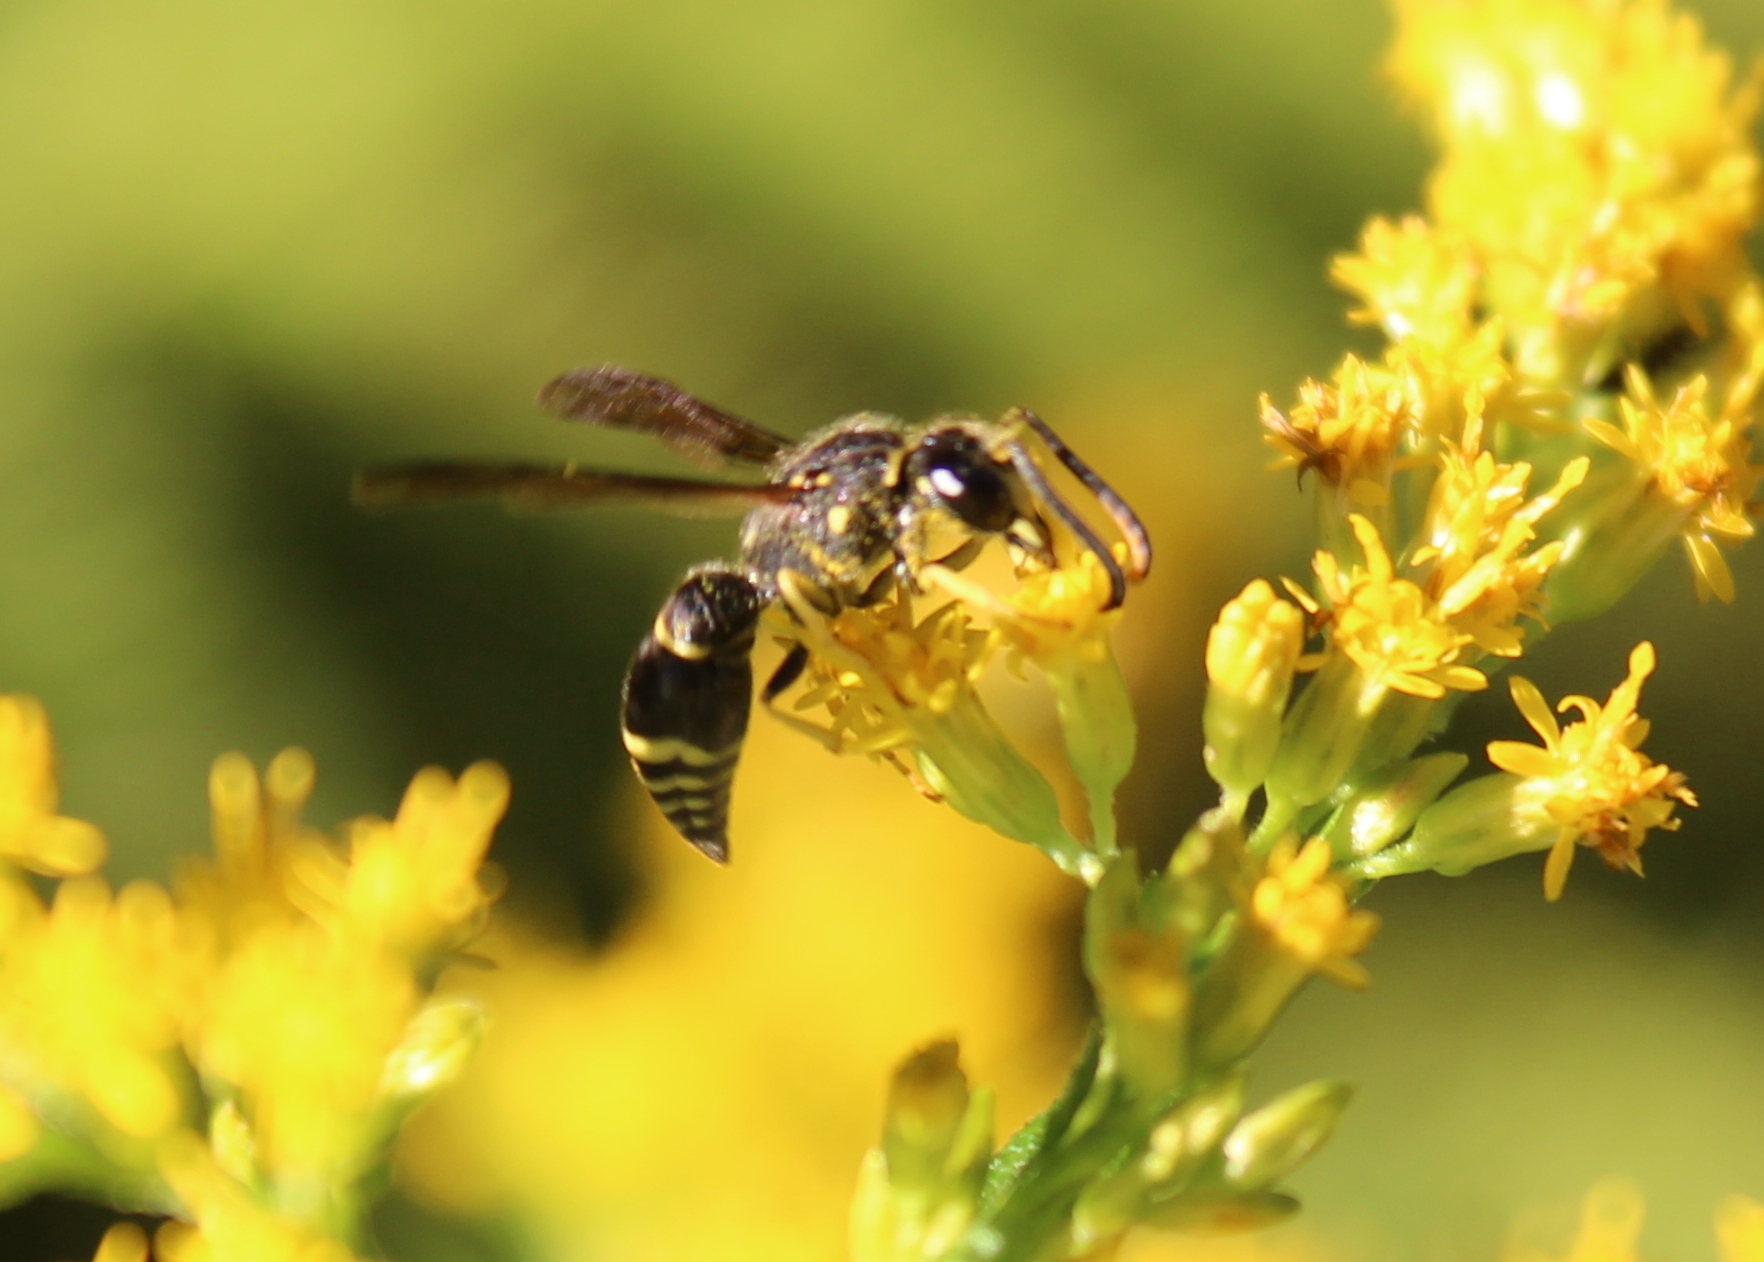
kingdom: Animalia
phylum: Arthropoda
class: Insecta
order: Hymenoptera
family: Vespidae
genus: Ancistrocerus
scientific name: Ancistrocerus
